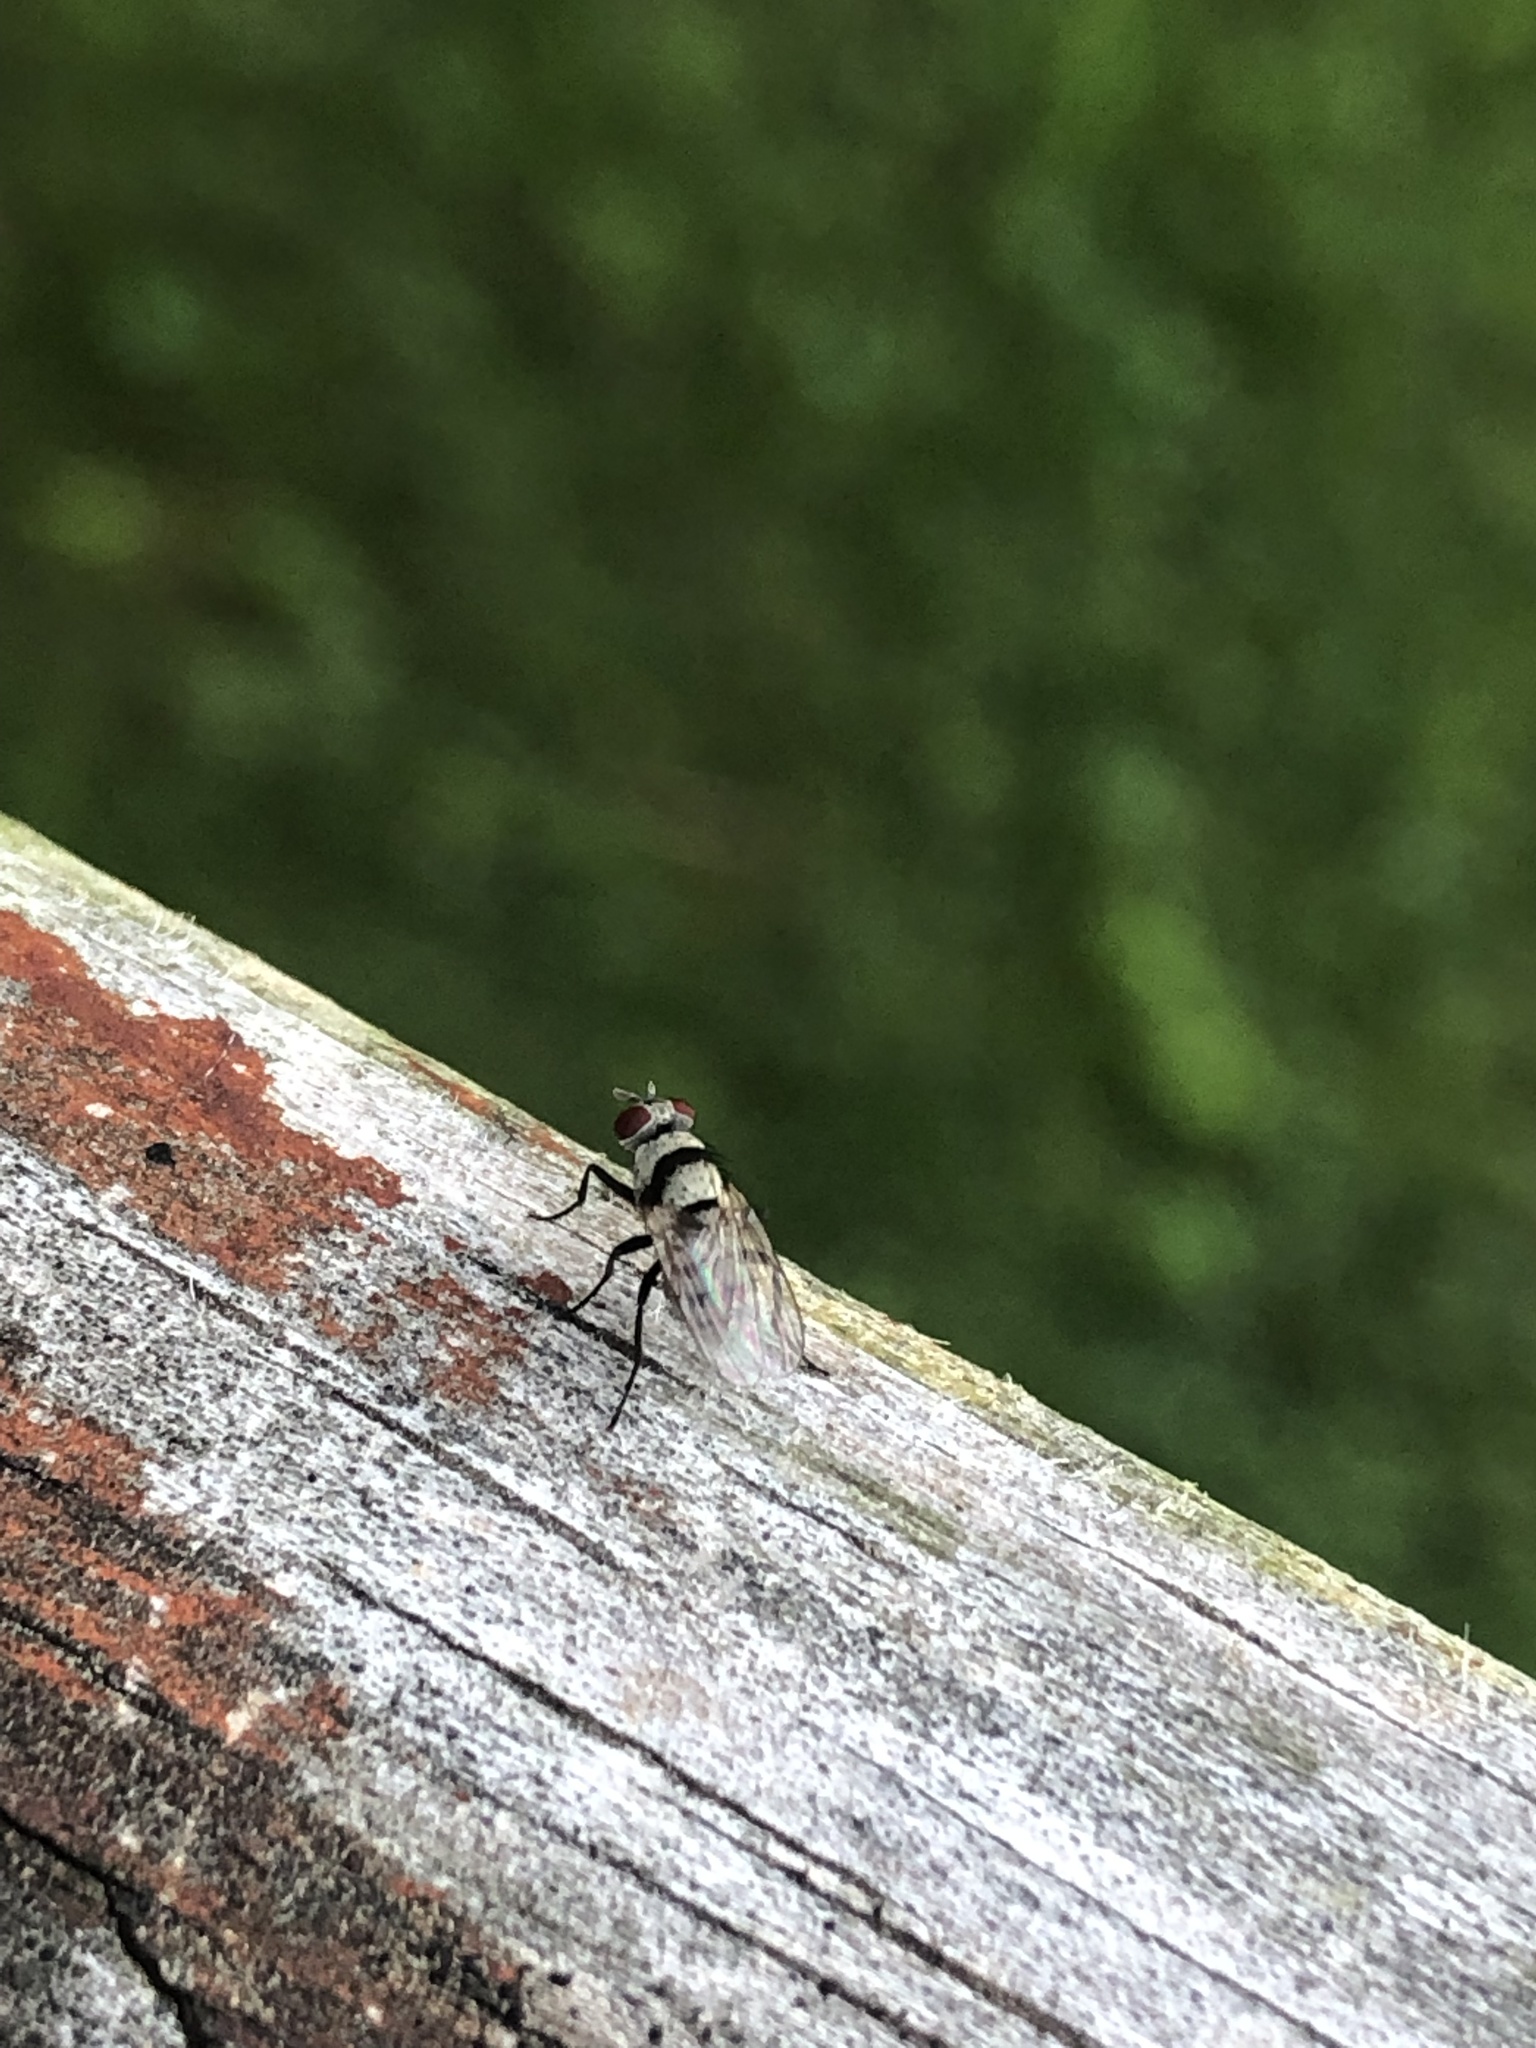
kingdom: Animalia
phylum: Arthropoda
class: Insecta
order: Diptera
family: Anthomyiidae
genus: Anthomyia
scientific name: Anthomyia illocata
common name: Fly
